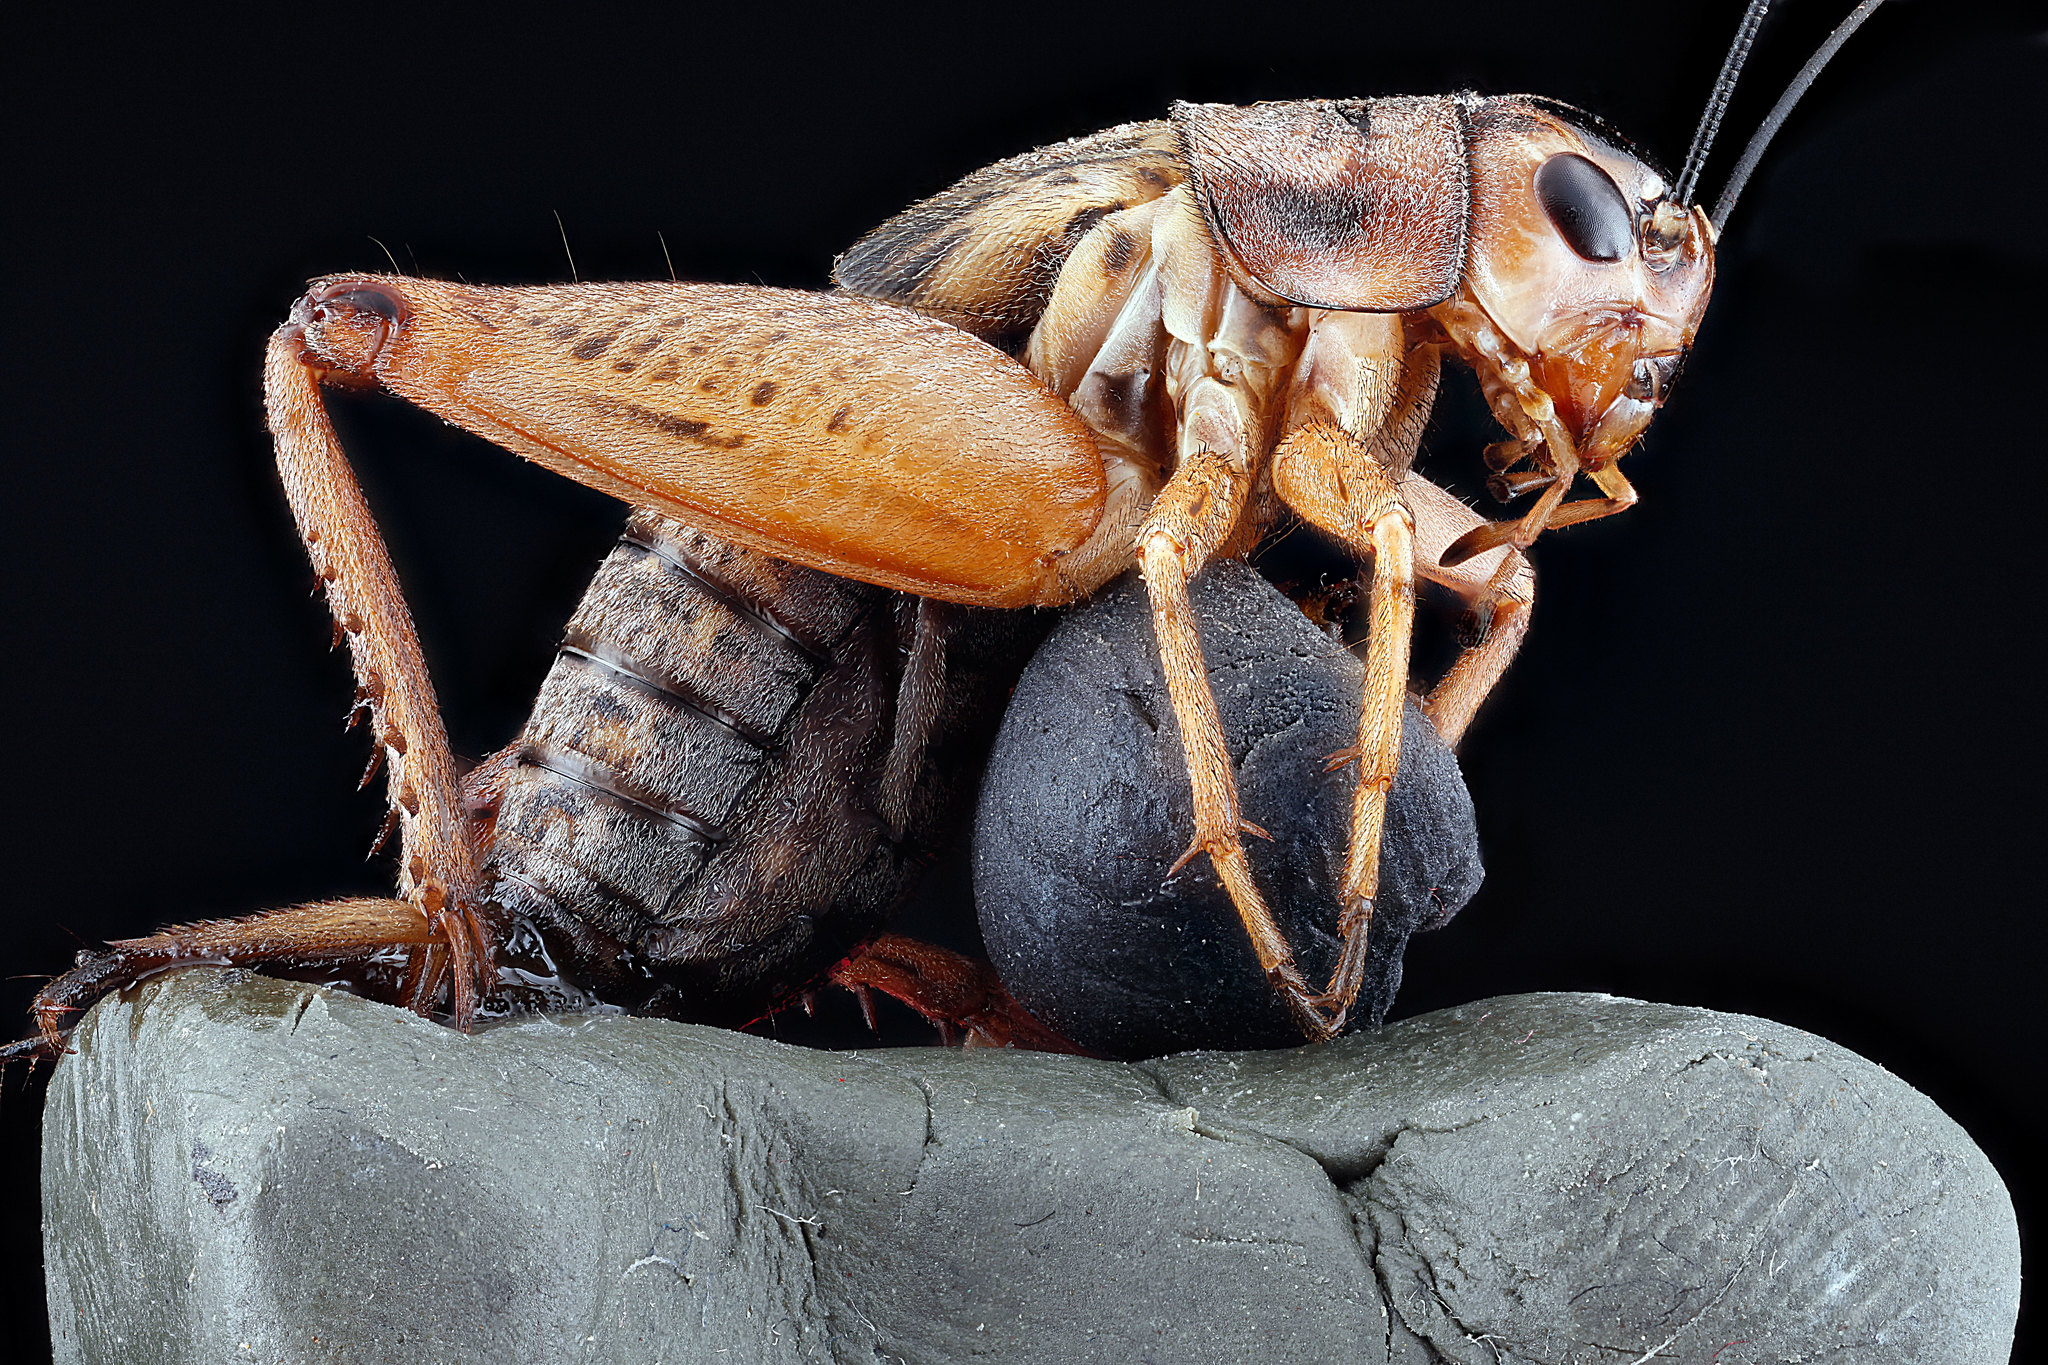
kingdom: Animalia
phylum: Arthropoda
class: Insecta
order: Orthoptera
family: Gryllidae
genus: Velarifictorus
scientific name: Velarifictorus micado
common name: Japanese burrowing cricket
